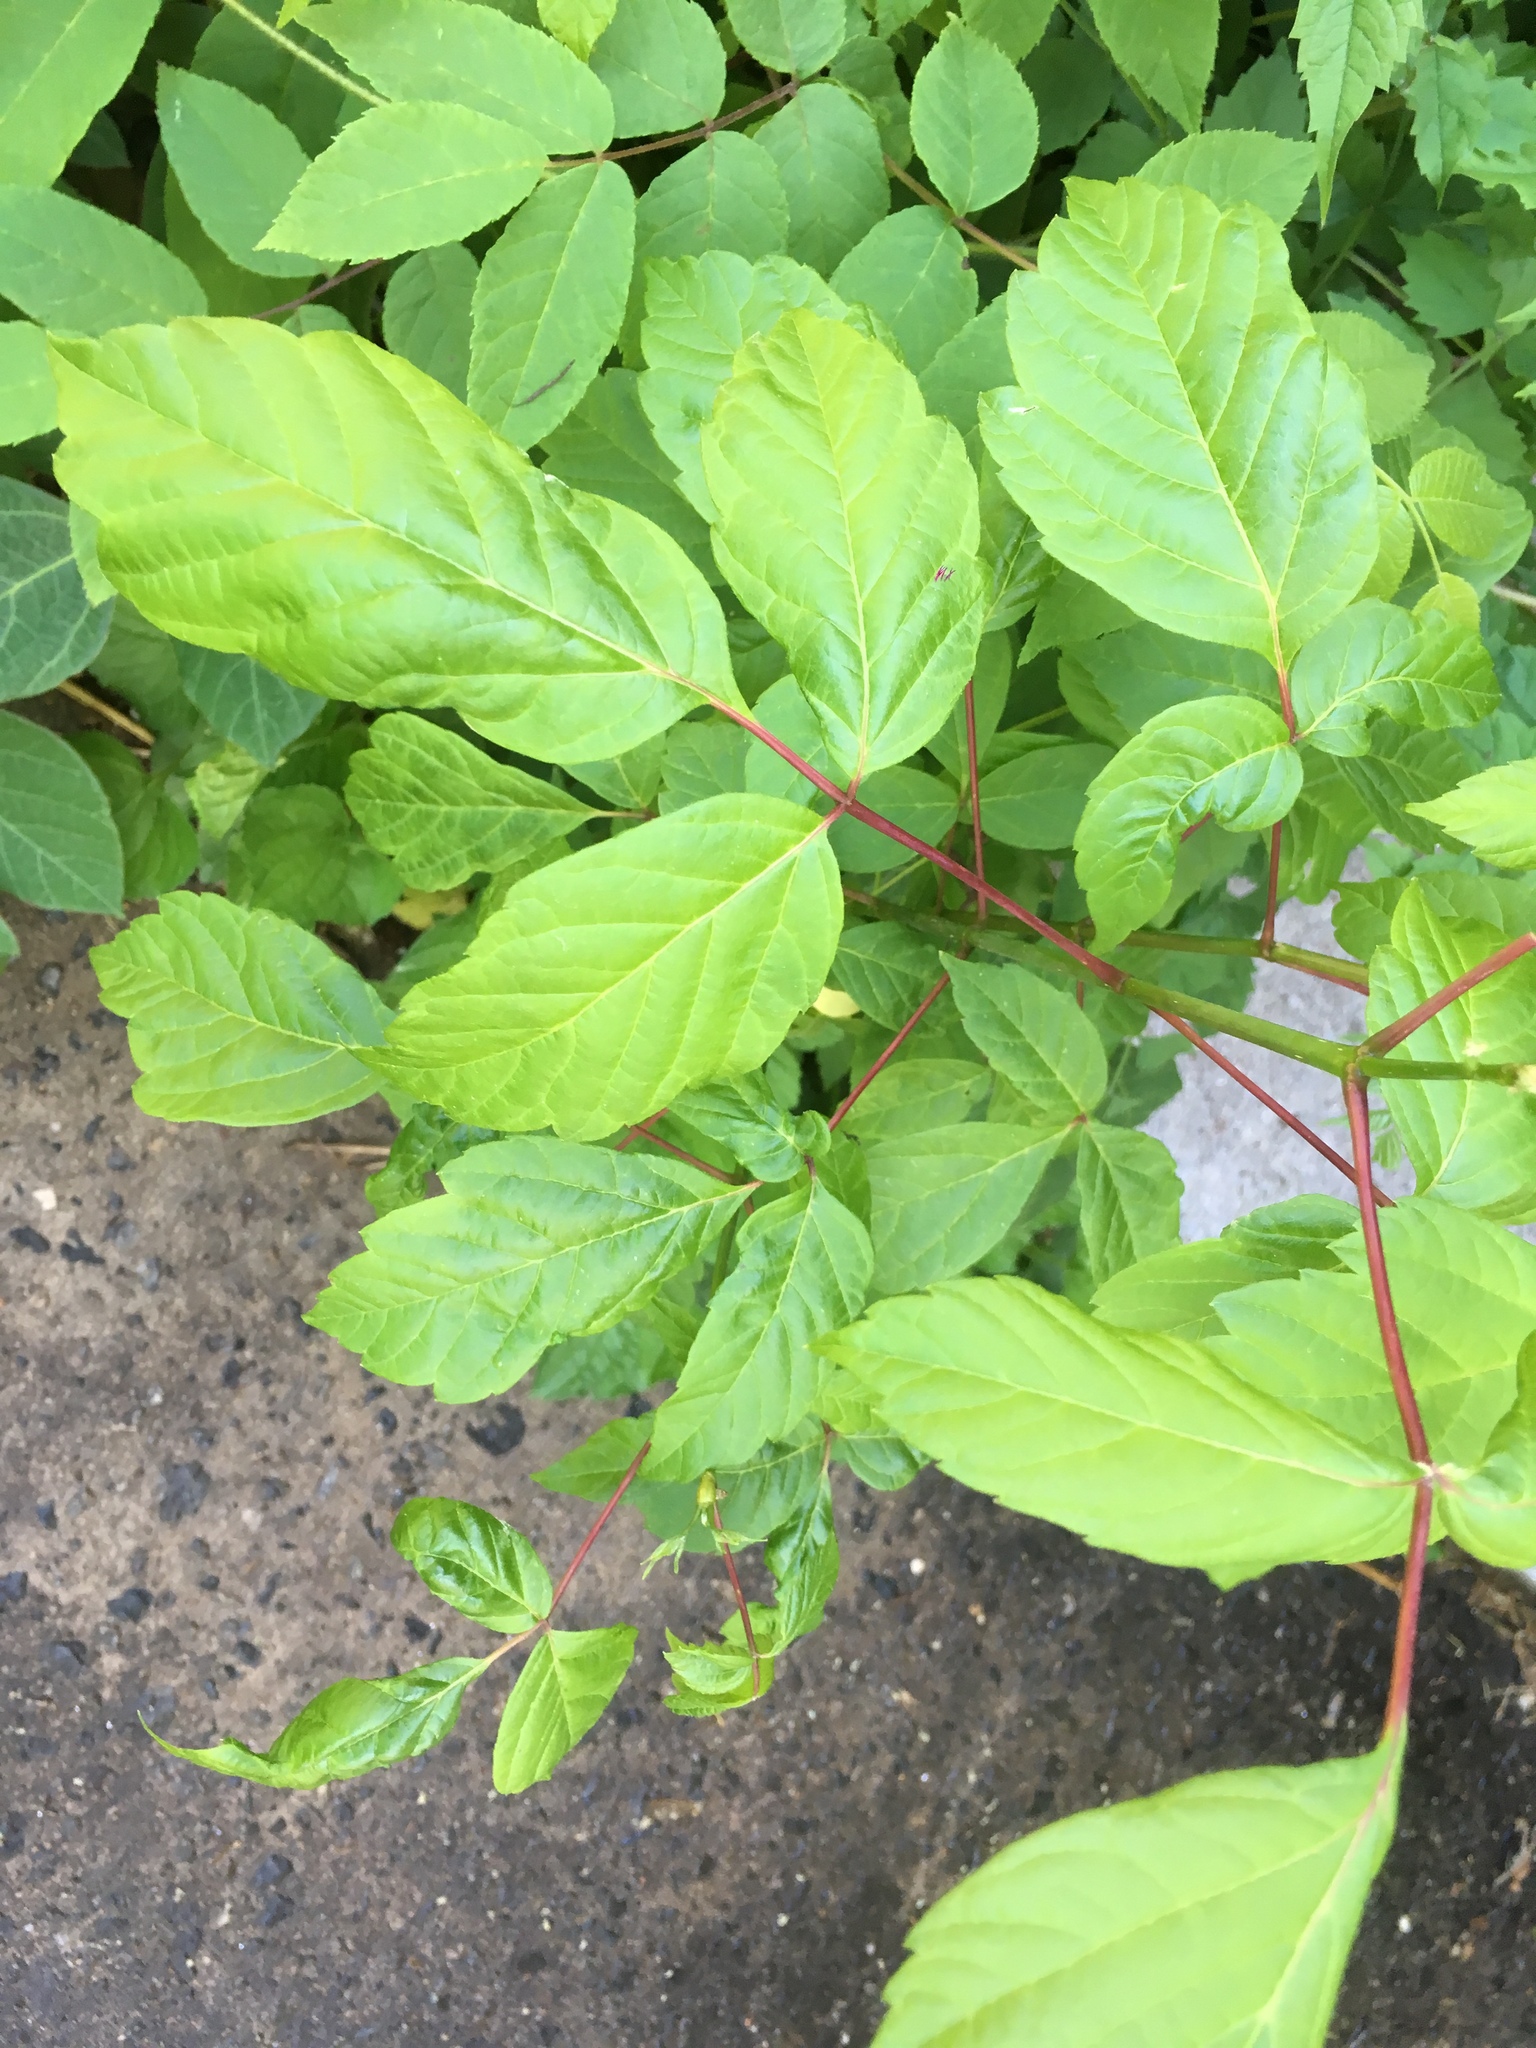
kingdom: Plantae
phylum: Tracheophyta
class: Magnoliopsida
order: Sapindales
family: Sapindaceae
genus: Acer
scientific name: Acer negundo
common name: Ashleaf maple
